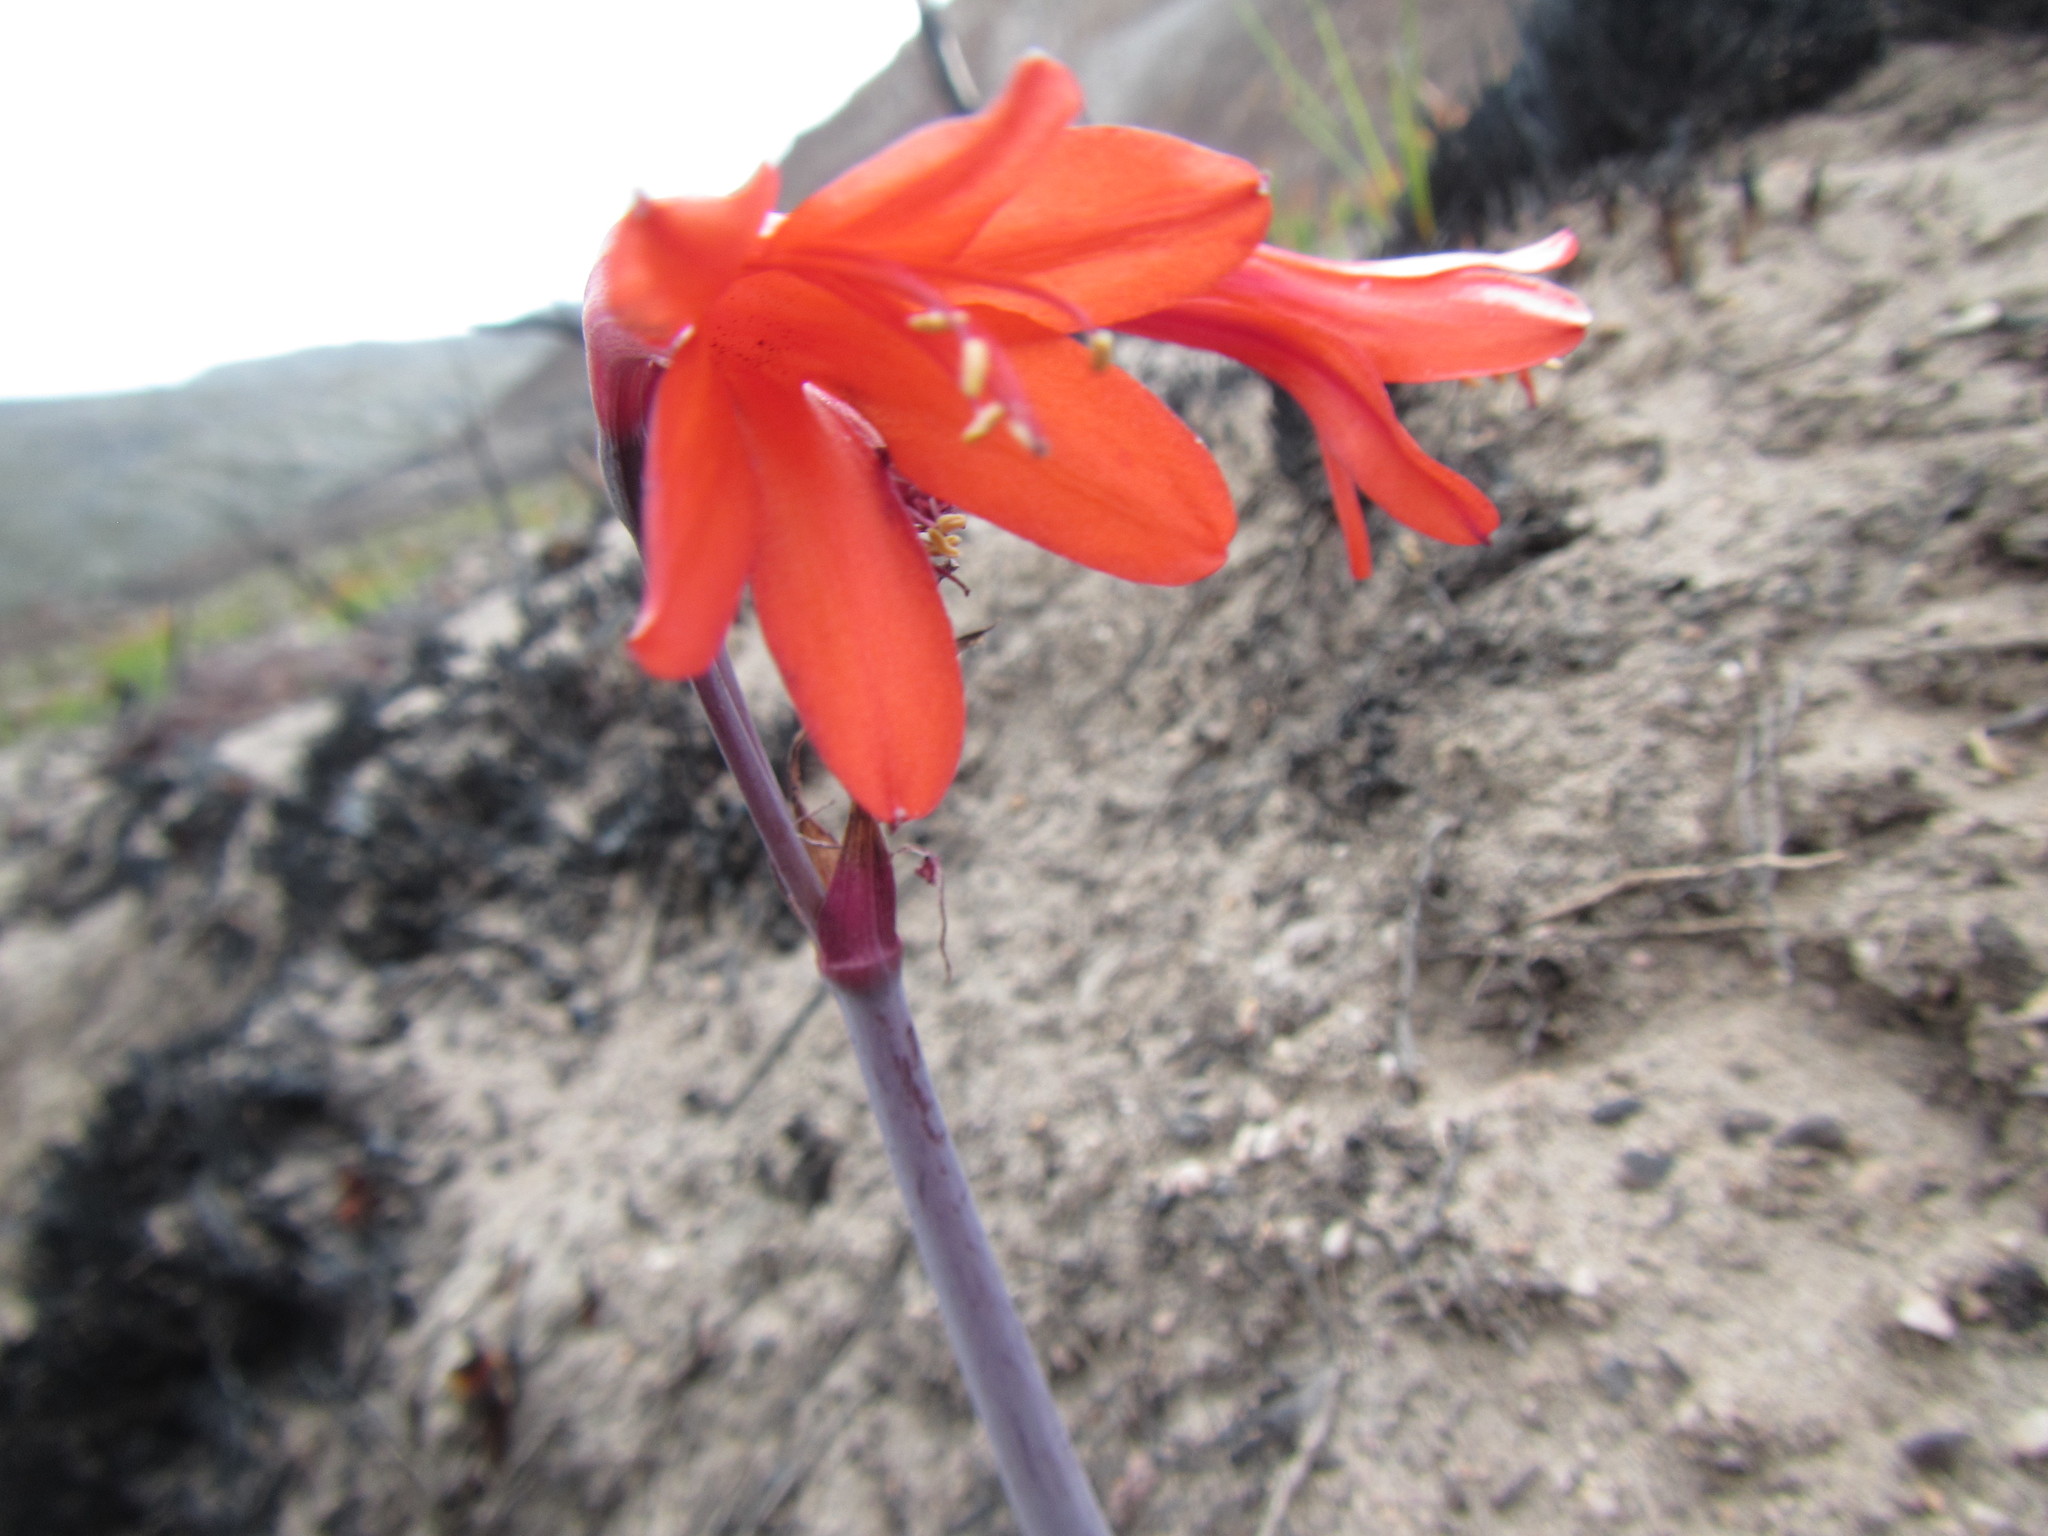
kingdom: Plantae
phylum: Tracheophyta
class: Liliopsida
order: Asparagales
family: Amaryllidaceae
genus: Cyrtanthus
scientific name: Cyrtanthus ventricosus
